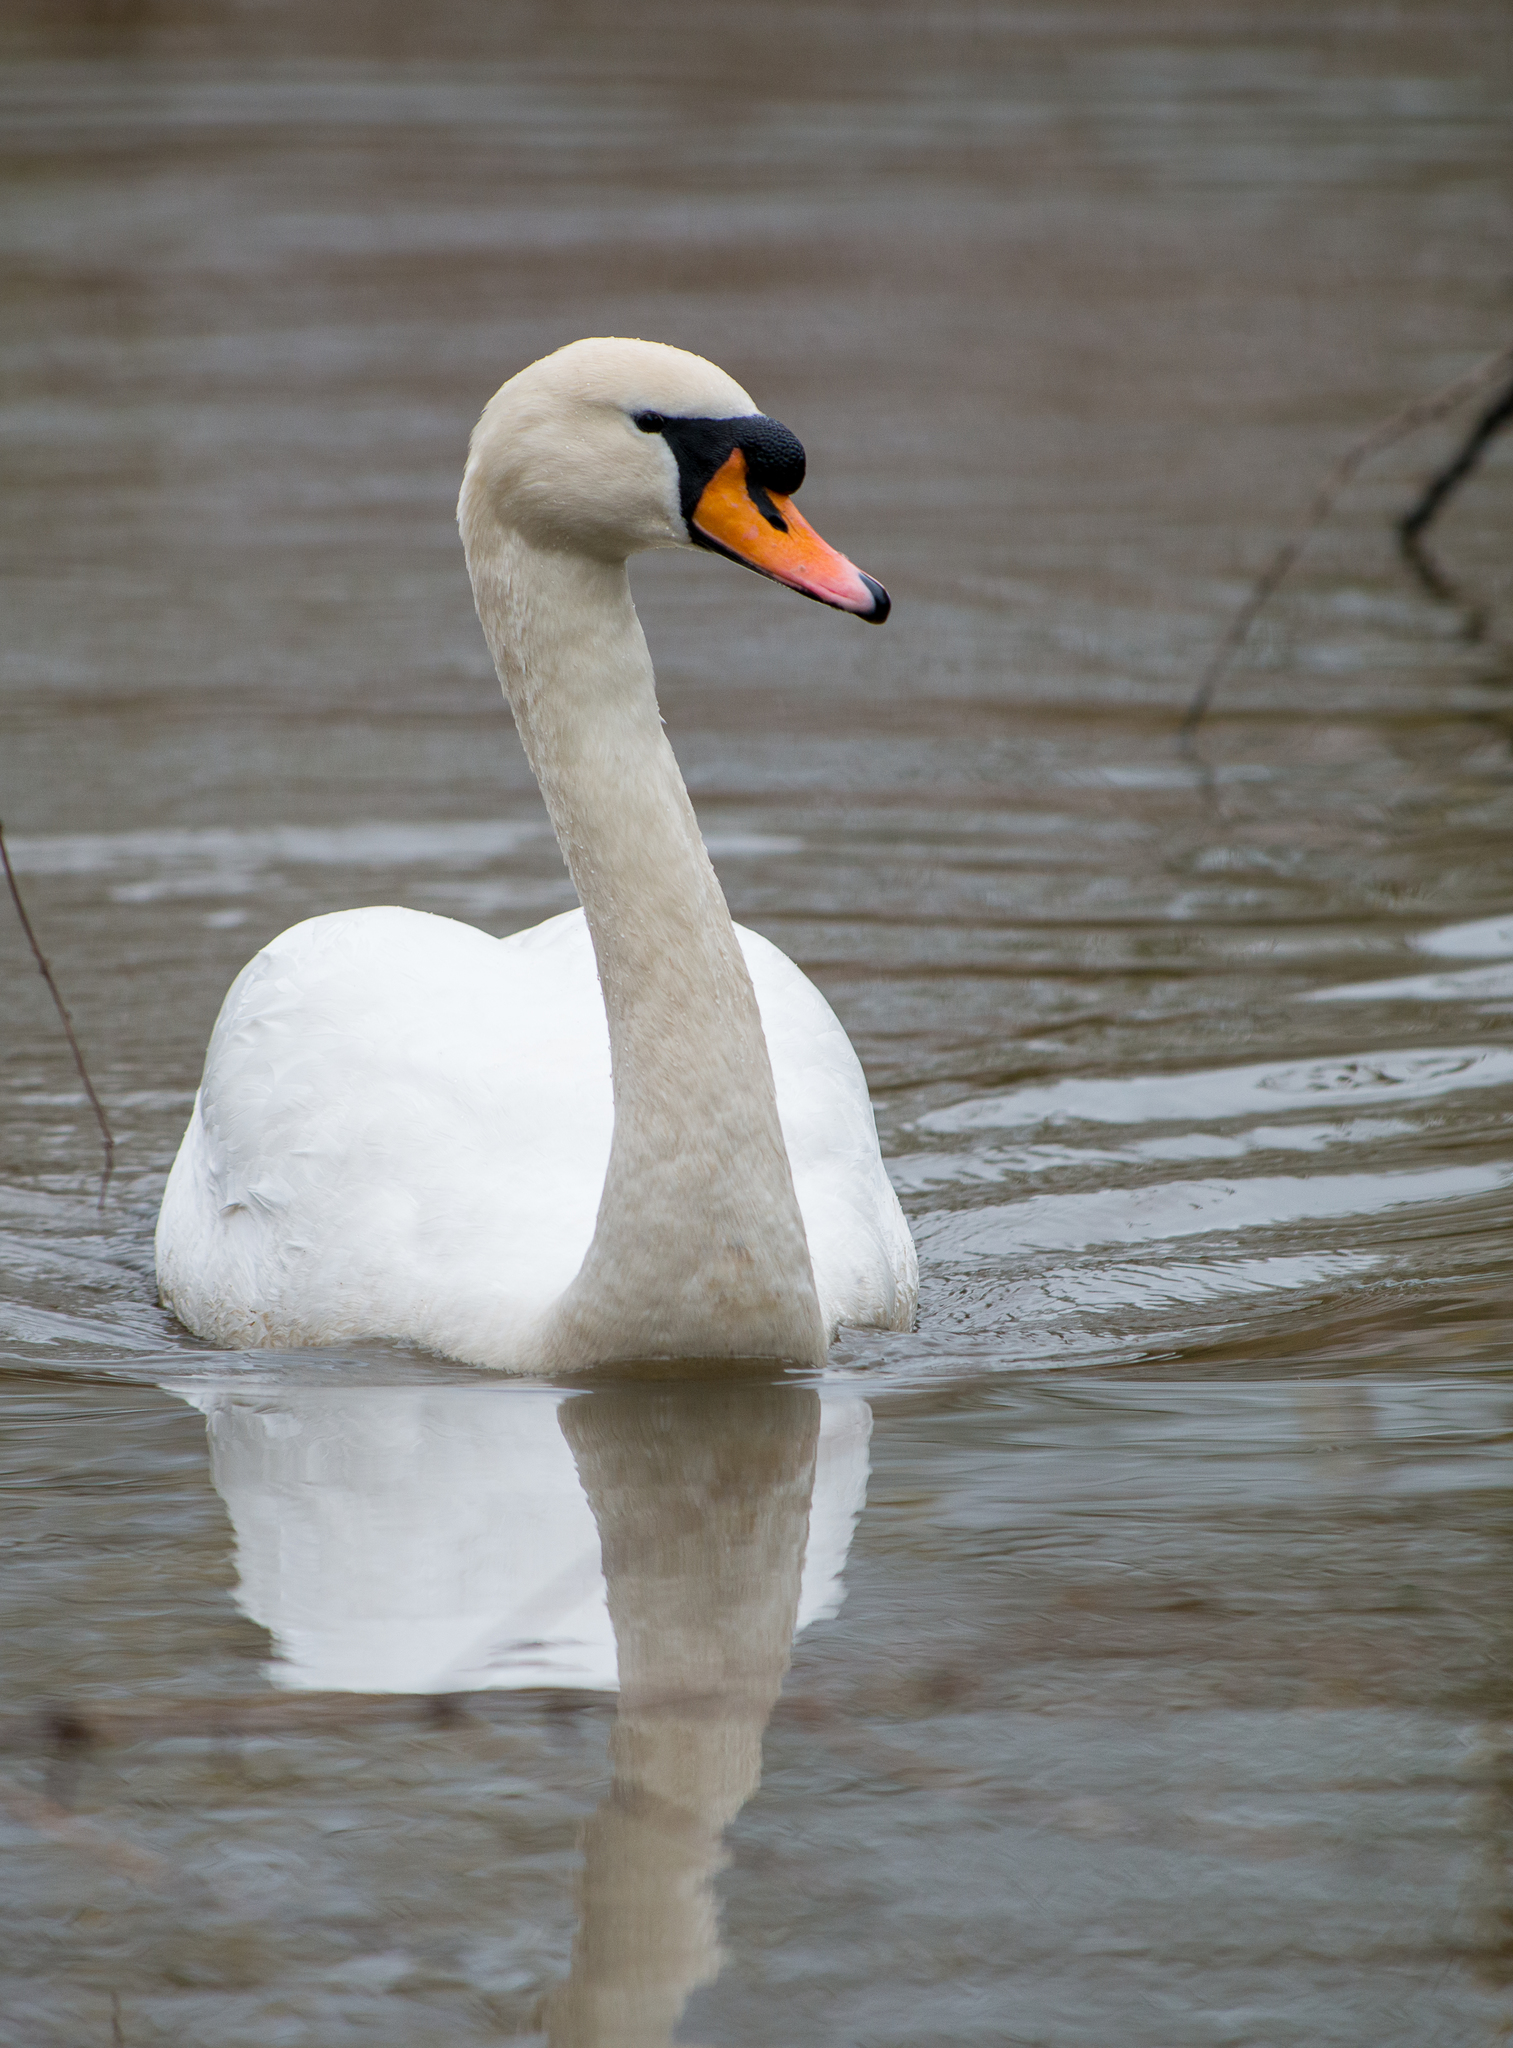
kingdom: Animalia
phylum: Chordata
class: Aves
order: Anseriformes
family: Anatidae
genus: Cygnus
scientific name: Cygnus olor
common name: Mute swan
